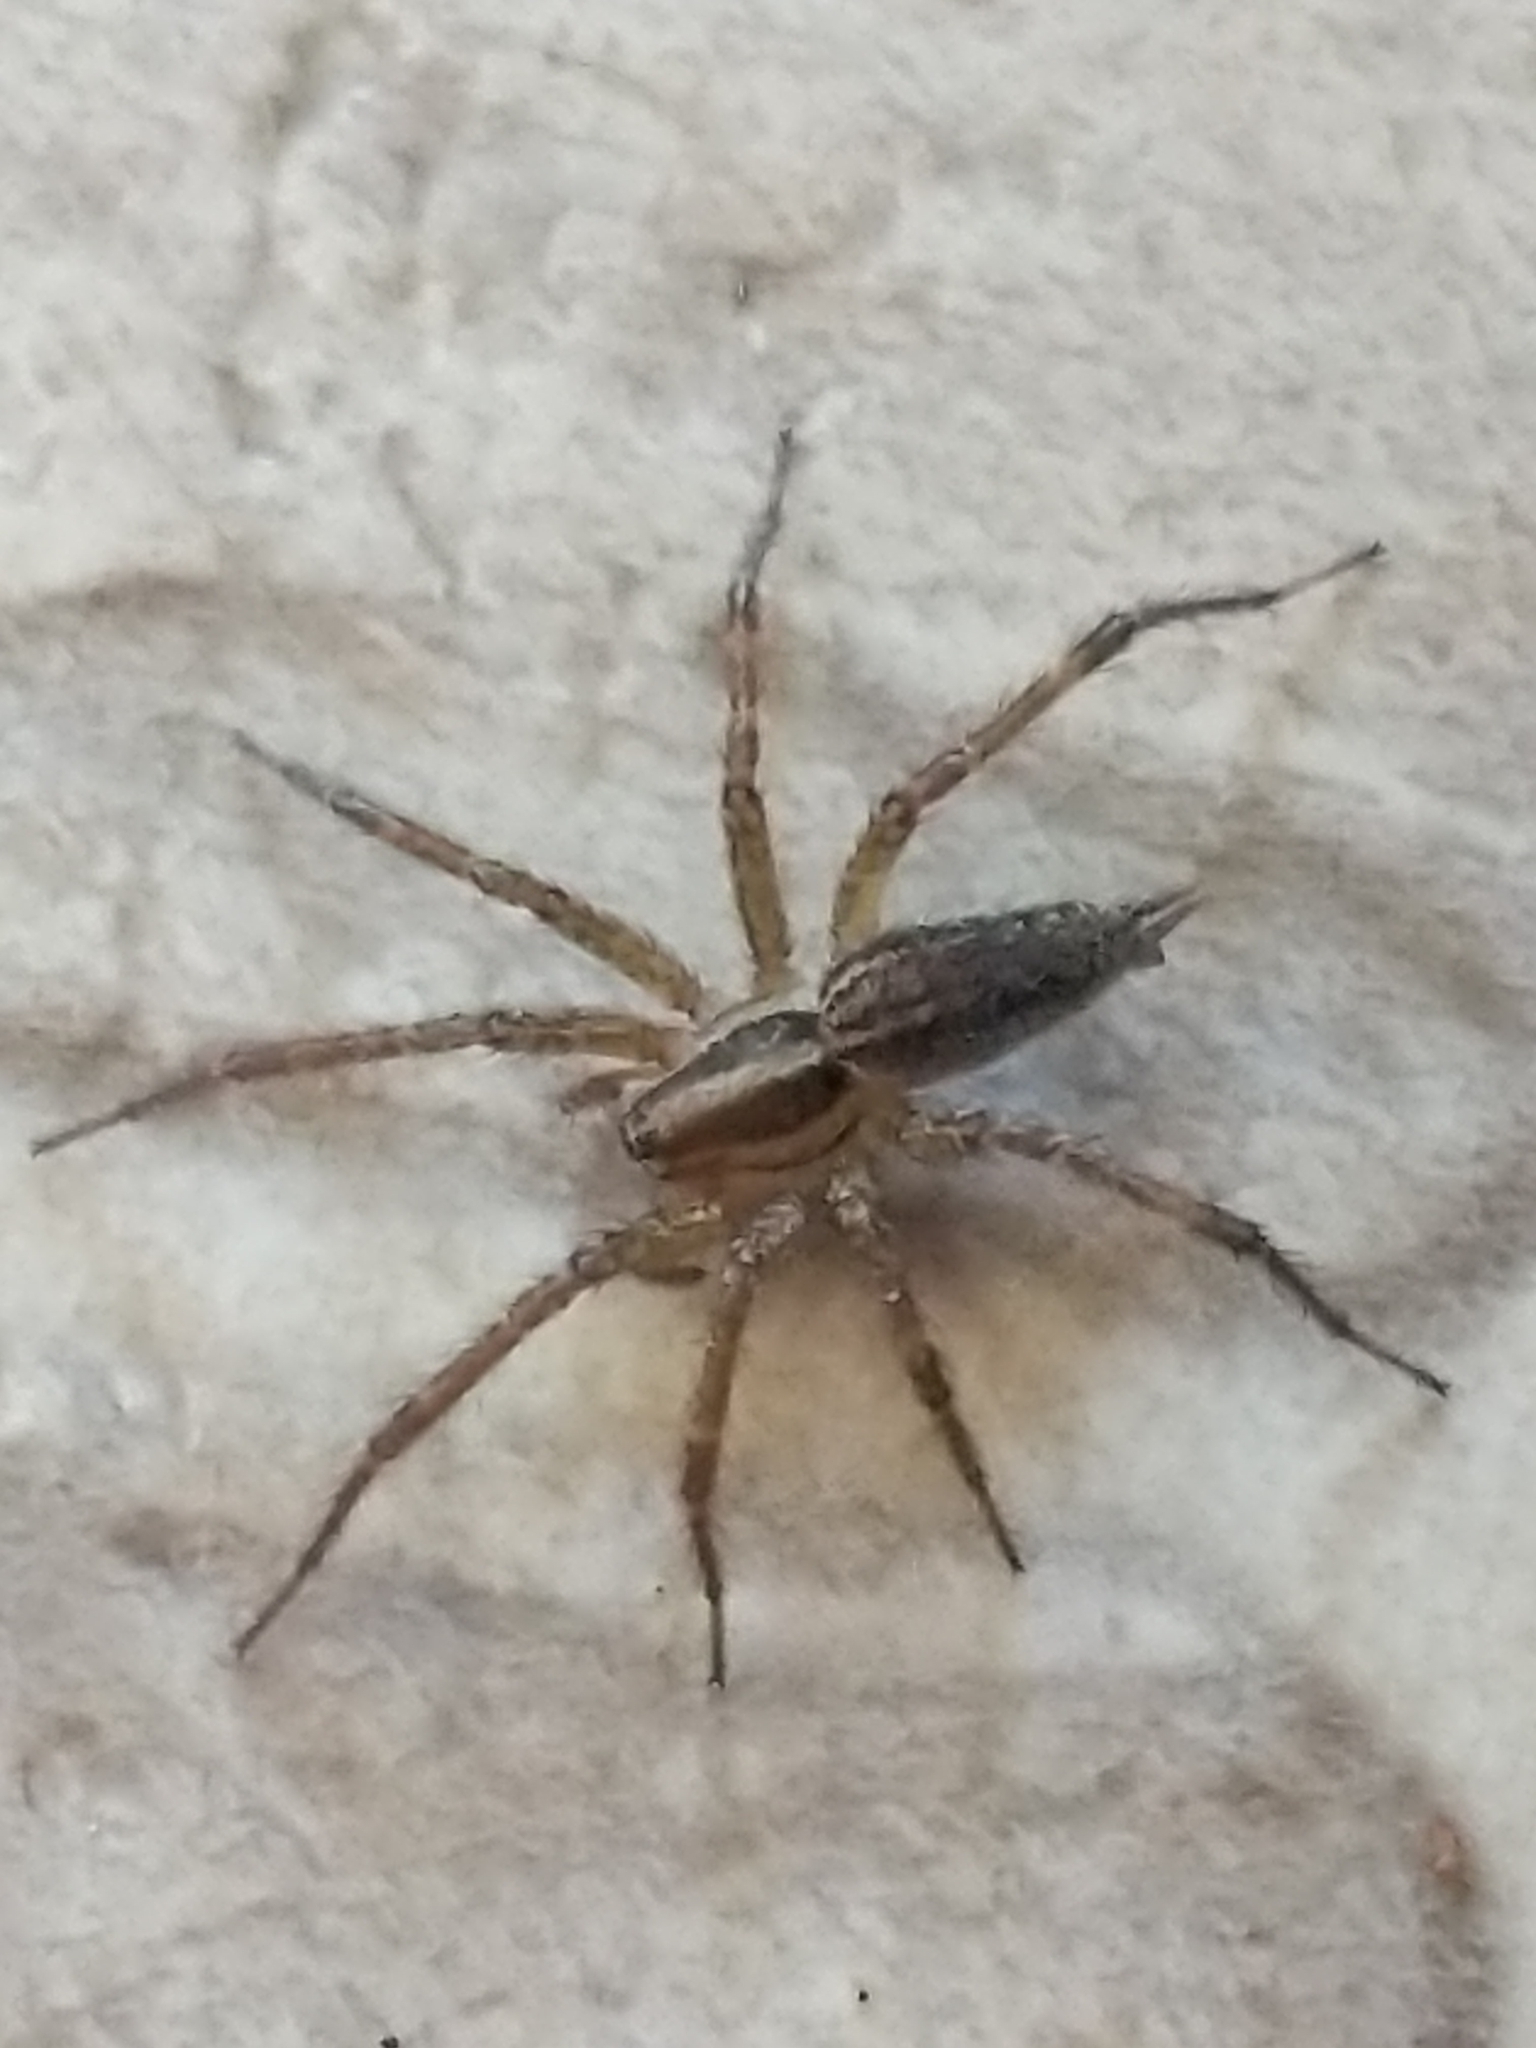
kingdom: Animalia
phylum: Arthropoda
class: Arachnida
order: Araneae
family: Agelenidae
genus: Agelenopsis
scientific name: Agelenopsis
